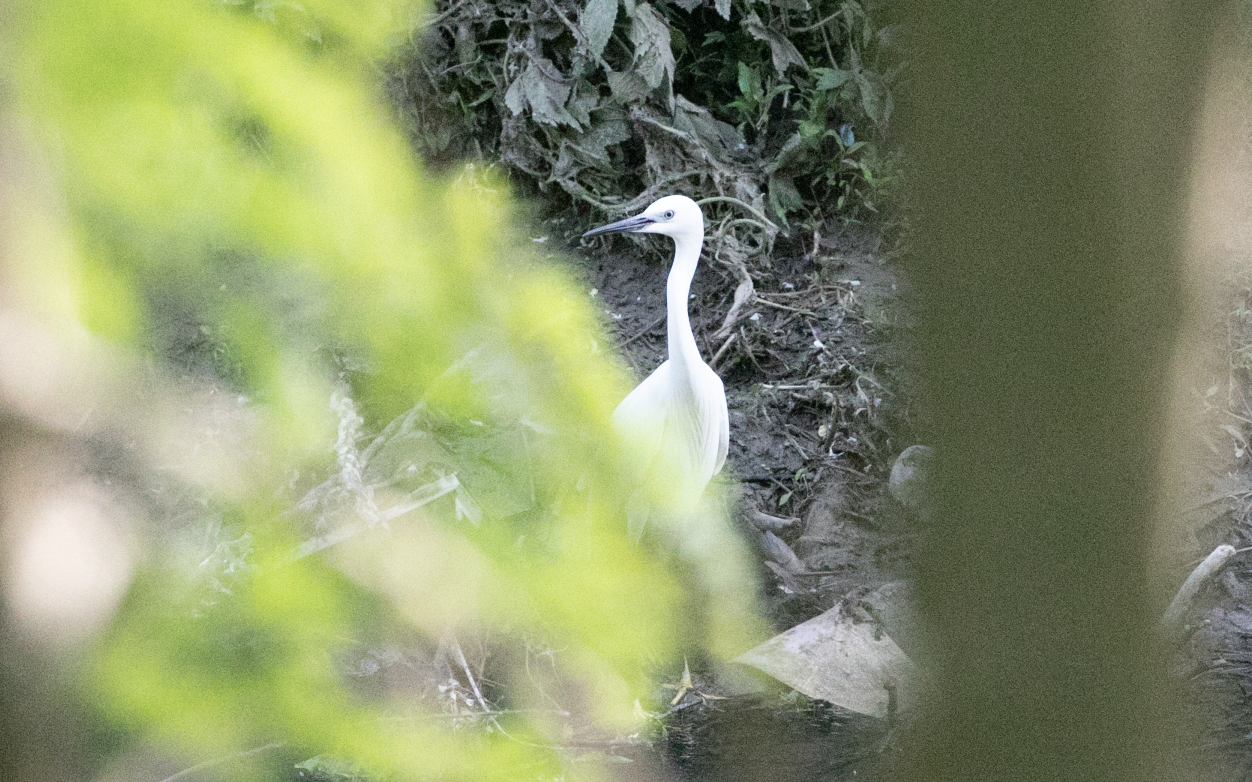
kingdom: Animalia
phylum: Chordata
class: Aves
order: Pelecaniformes
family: Ardeidae
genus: Egretta
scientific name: Egretta garzetta
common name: Little egret
